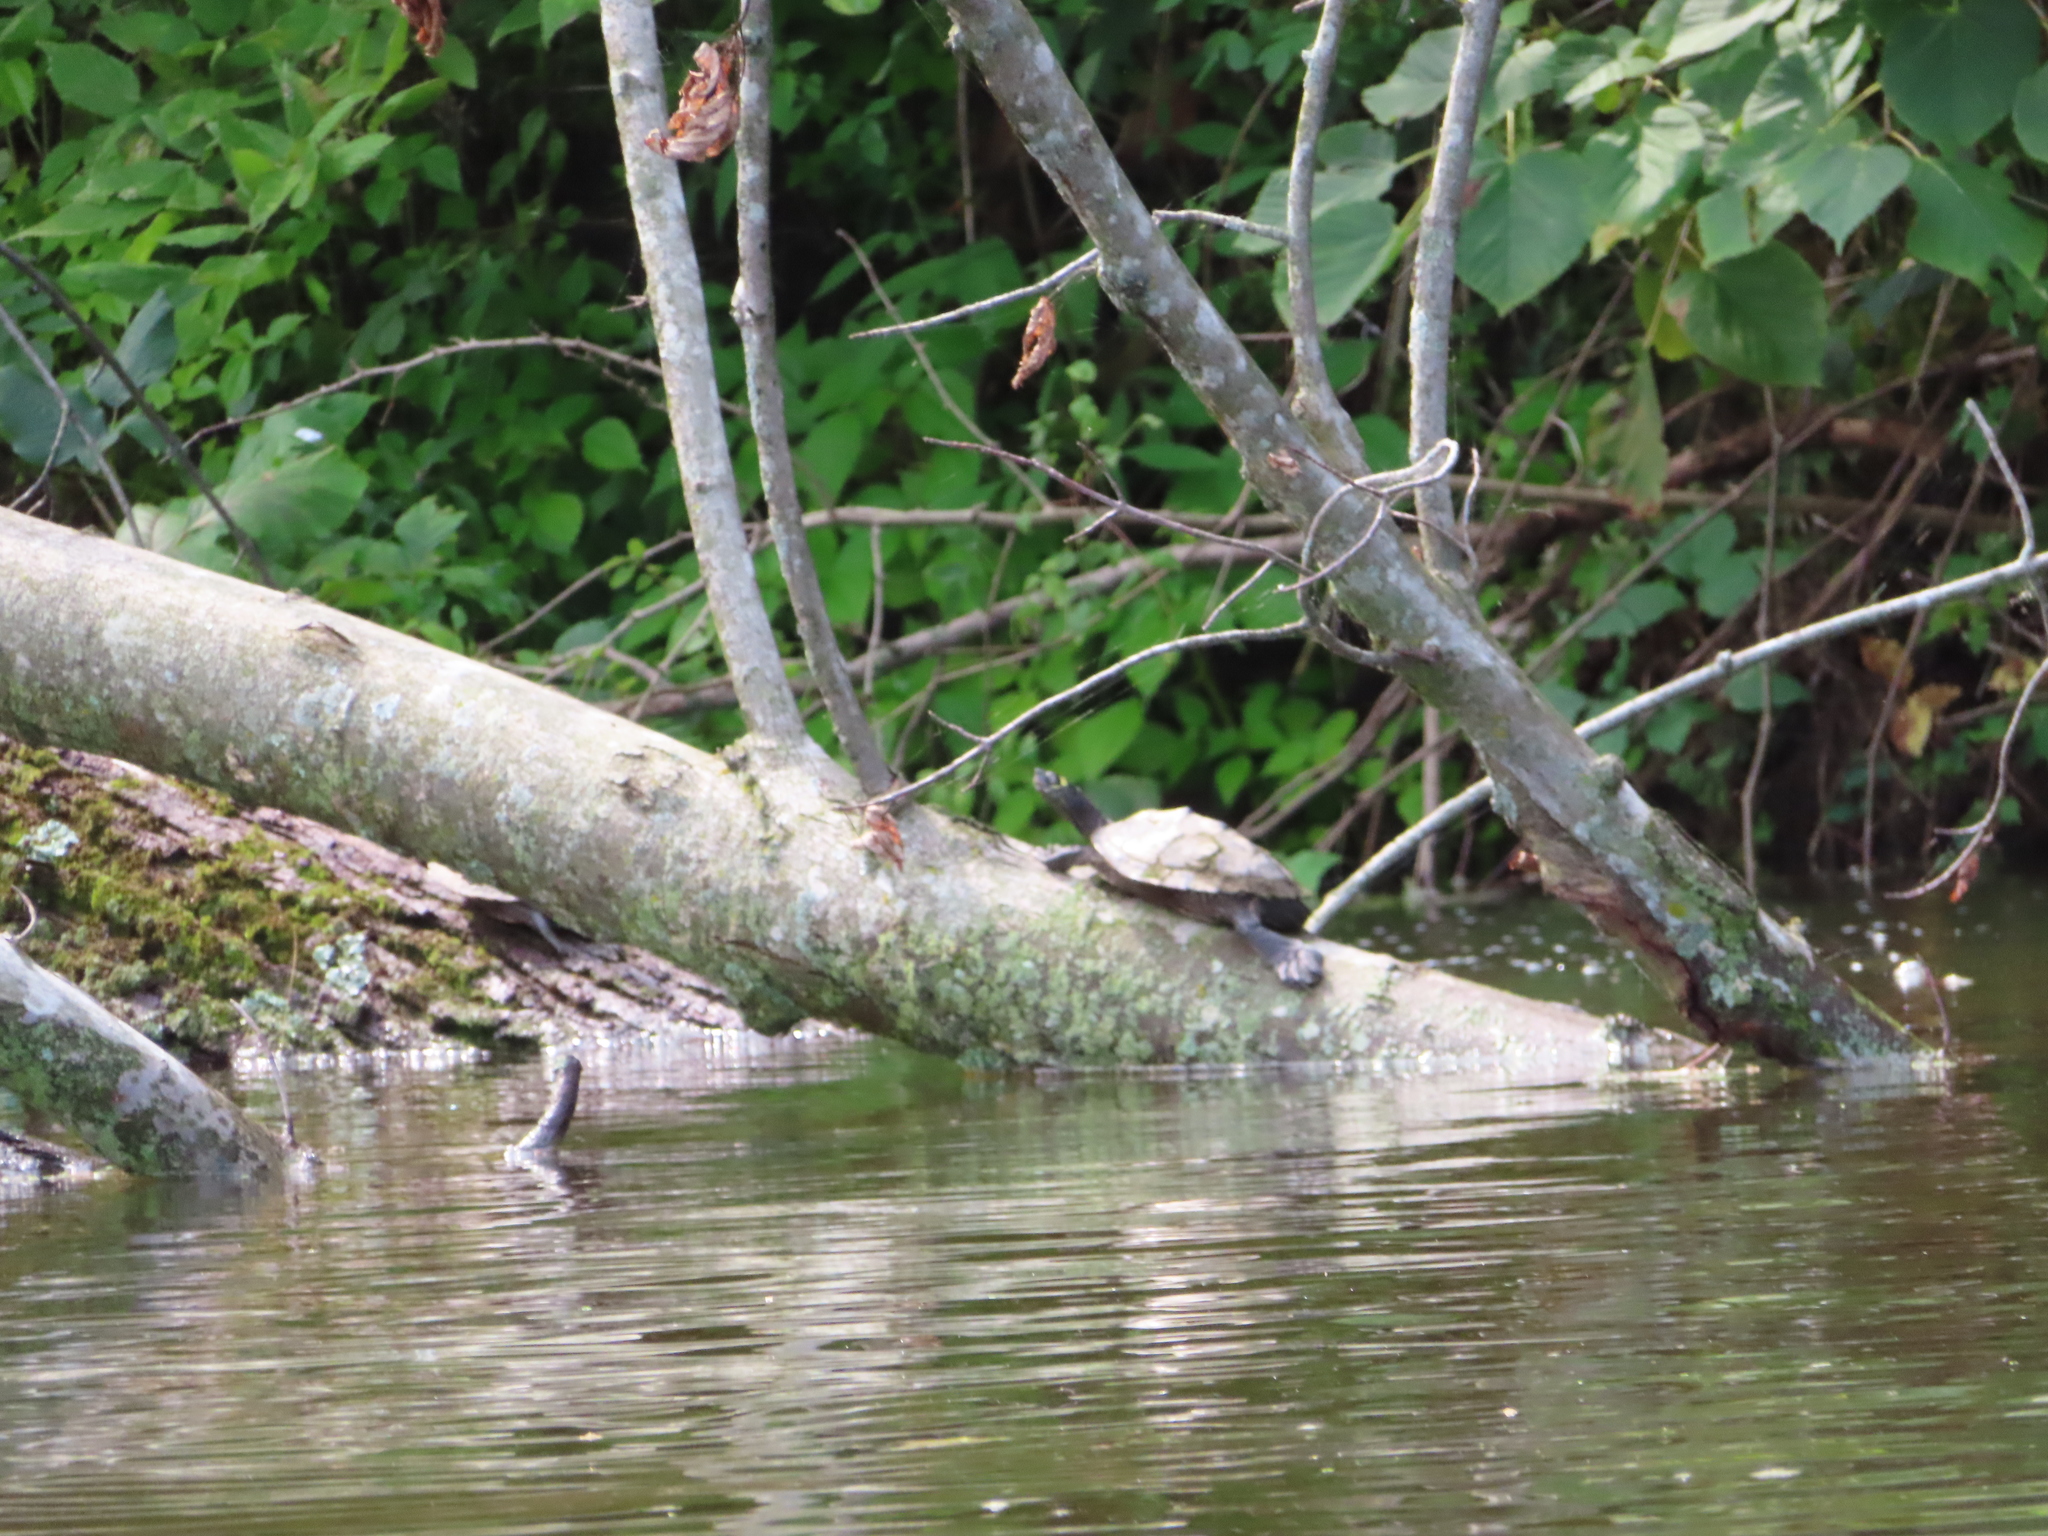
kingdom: Animalia
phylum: Chordata
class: Testudines
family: Emydidae
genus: Graptemys
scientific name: Graptemys ouachitensis
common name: Ouachita map turtle
